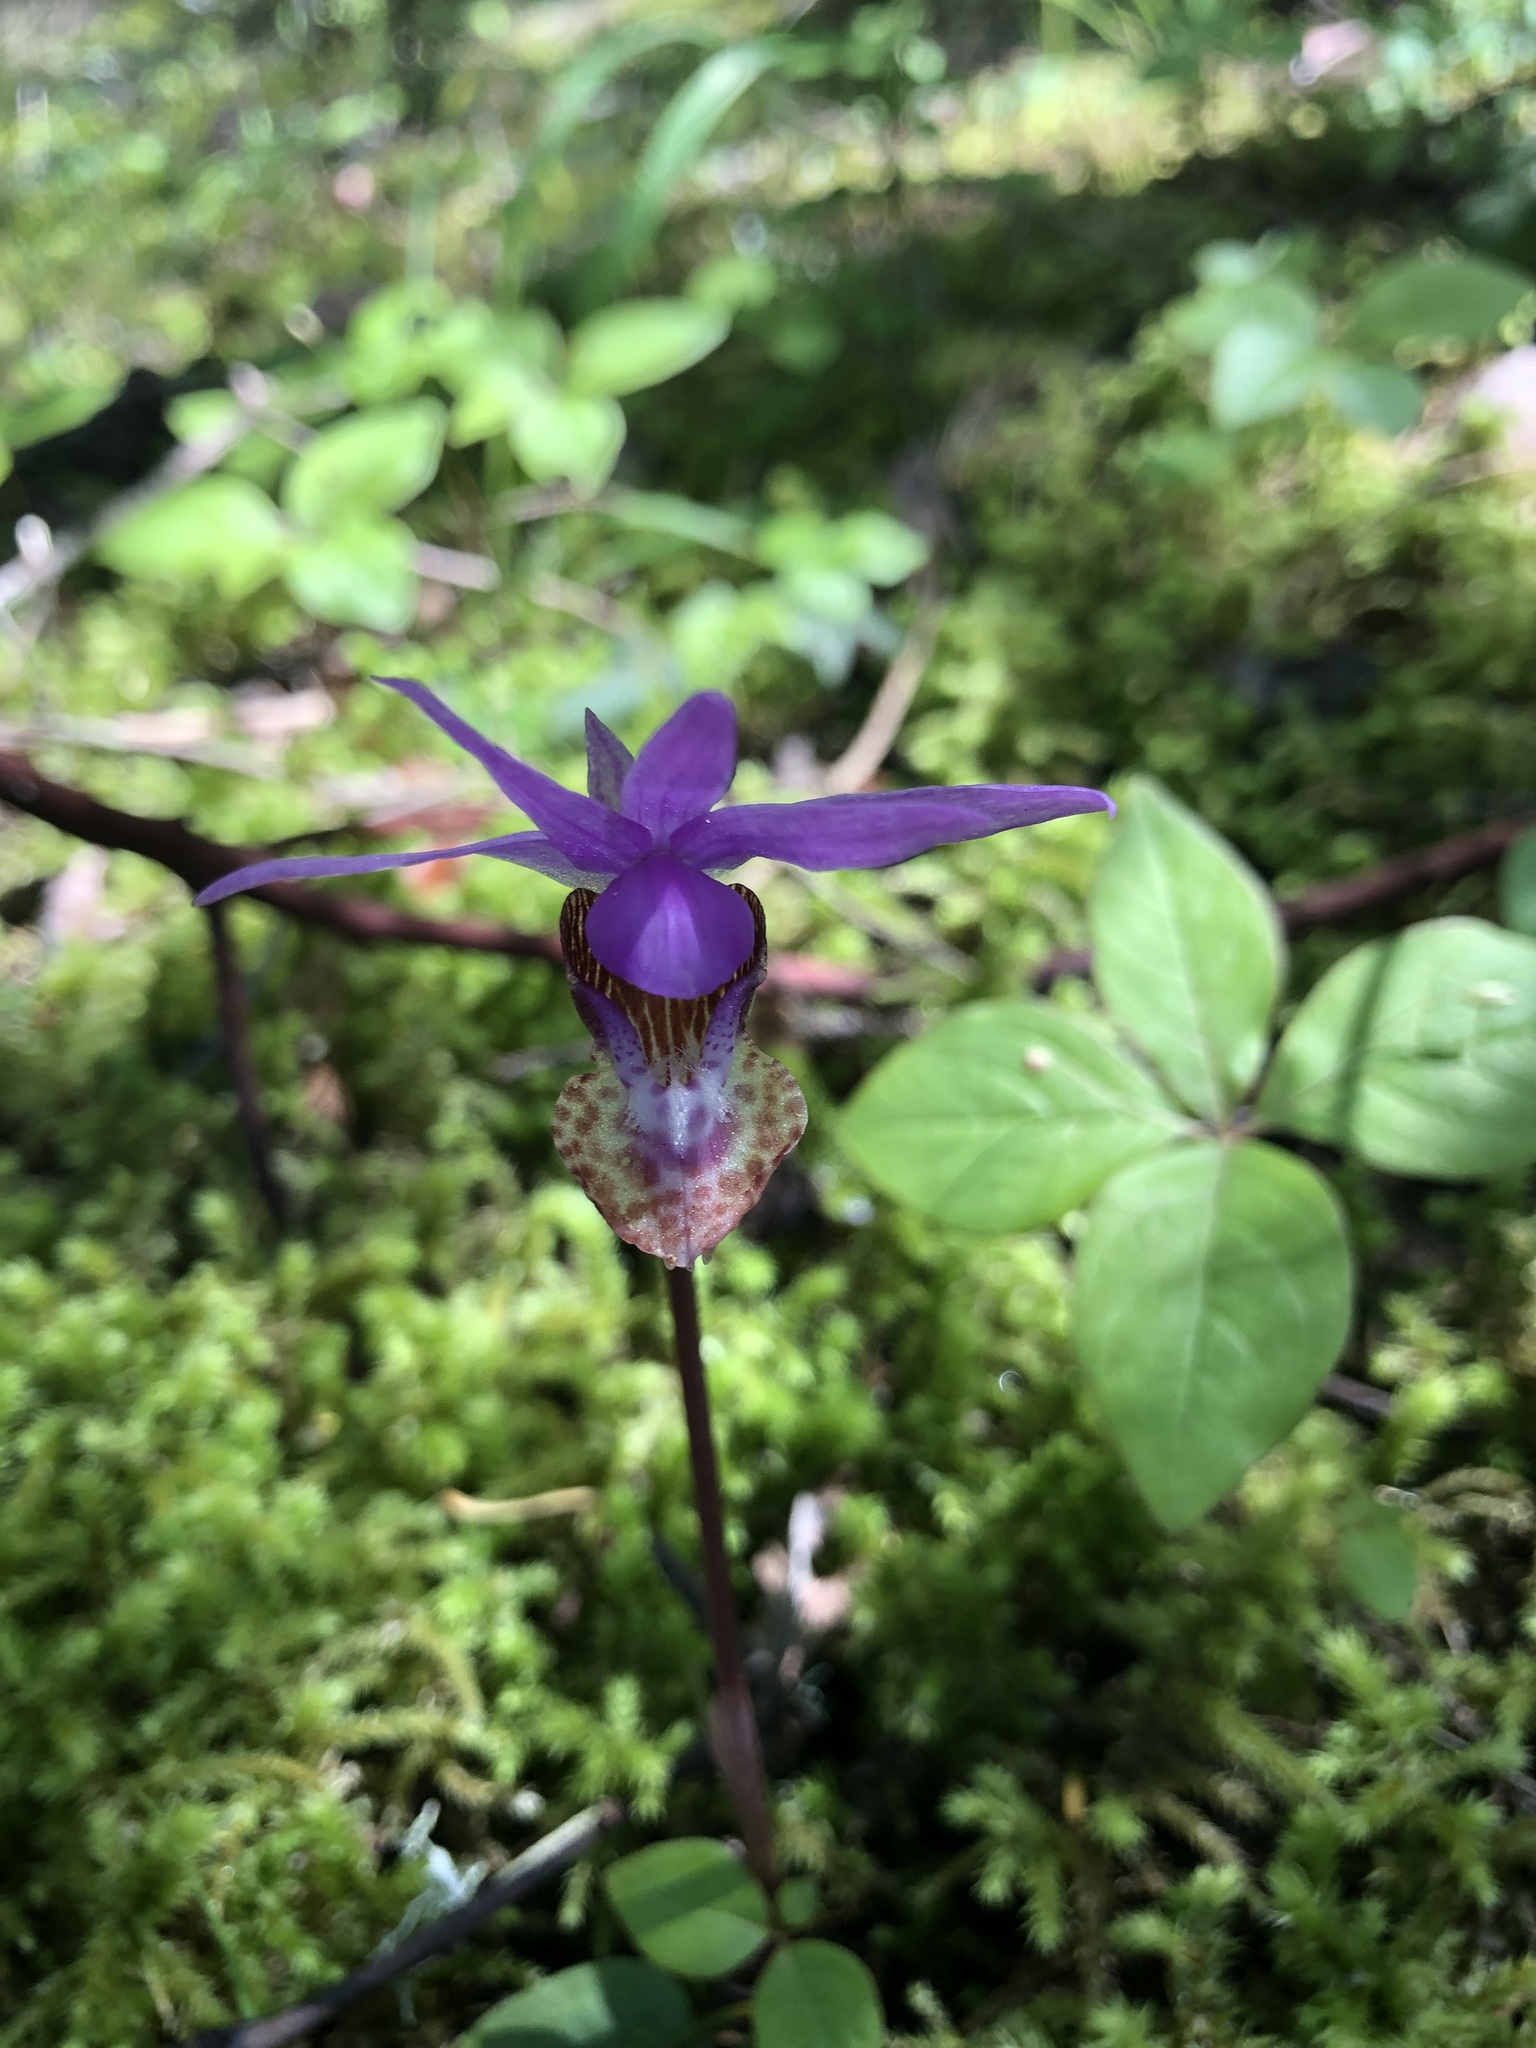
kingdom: Plantae
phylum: Tracheophyta
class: Liliopsida
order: Asparagales
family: Orchidaceae
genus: Calypso
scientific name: Calypso bulbosa
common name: Calypso
